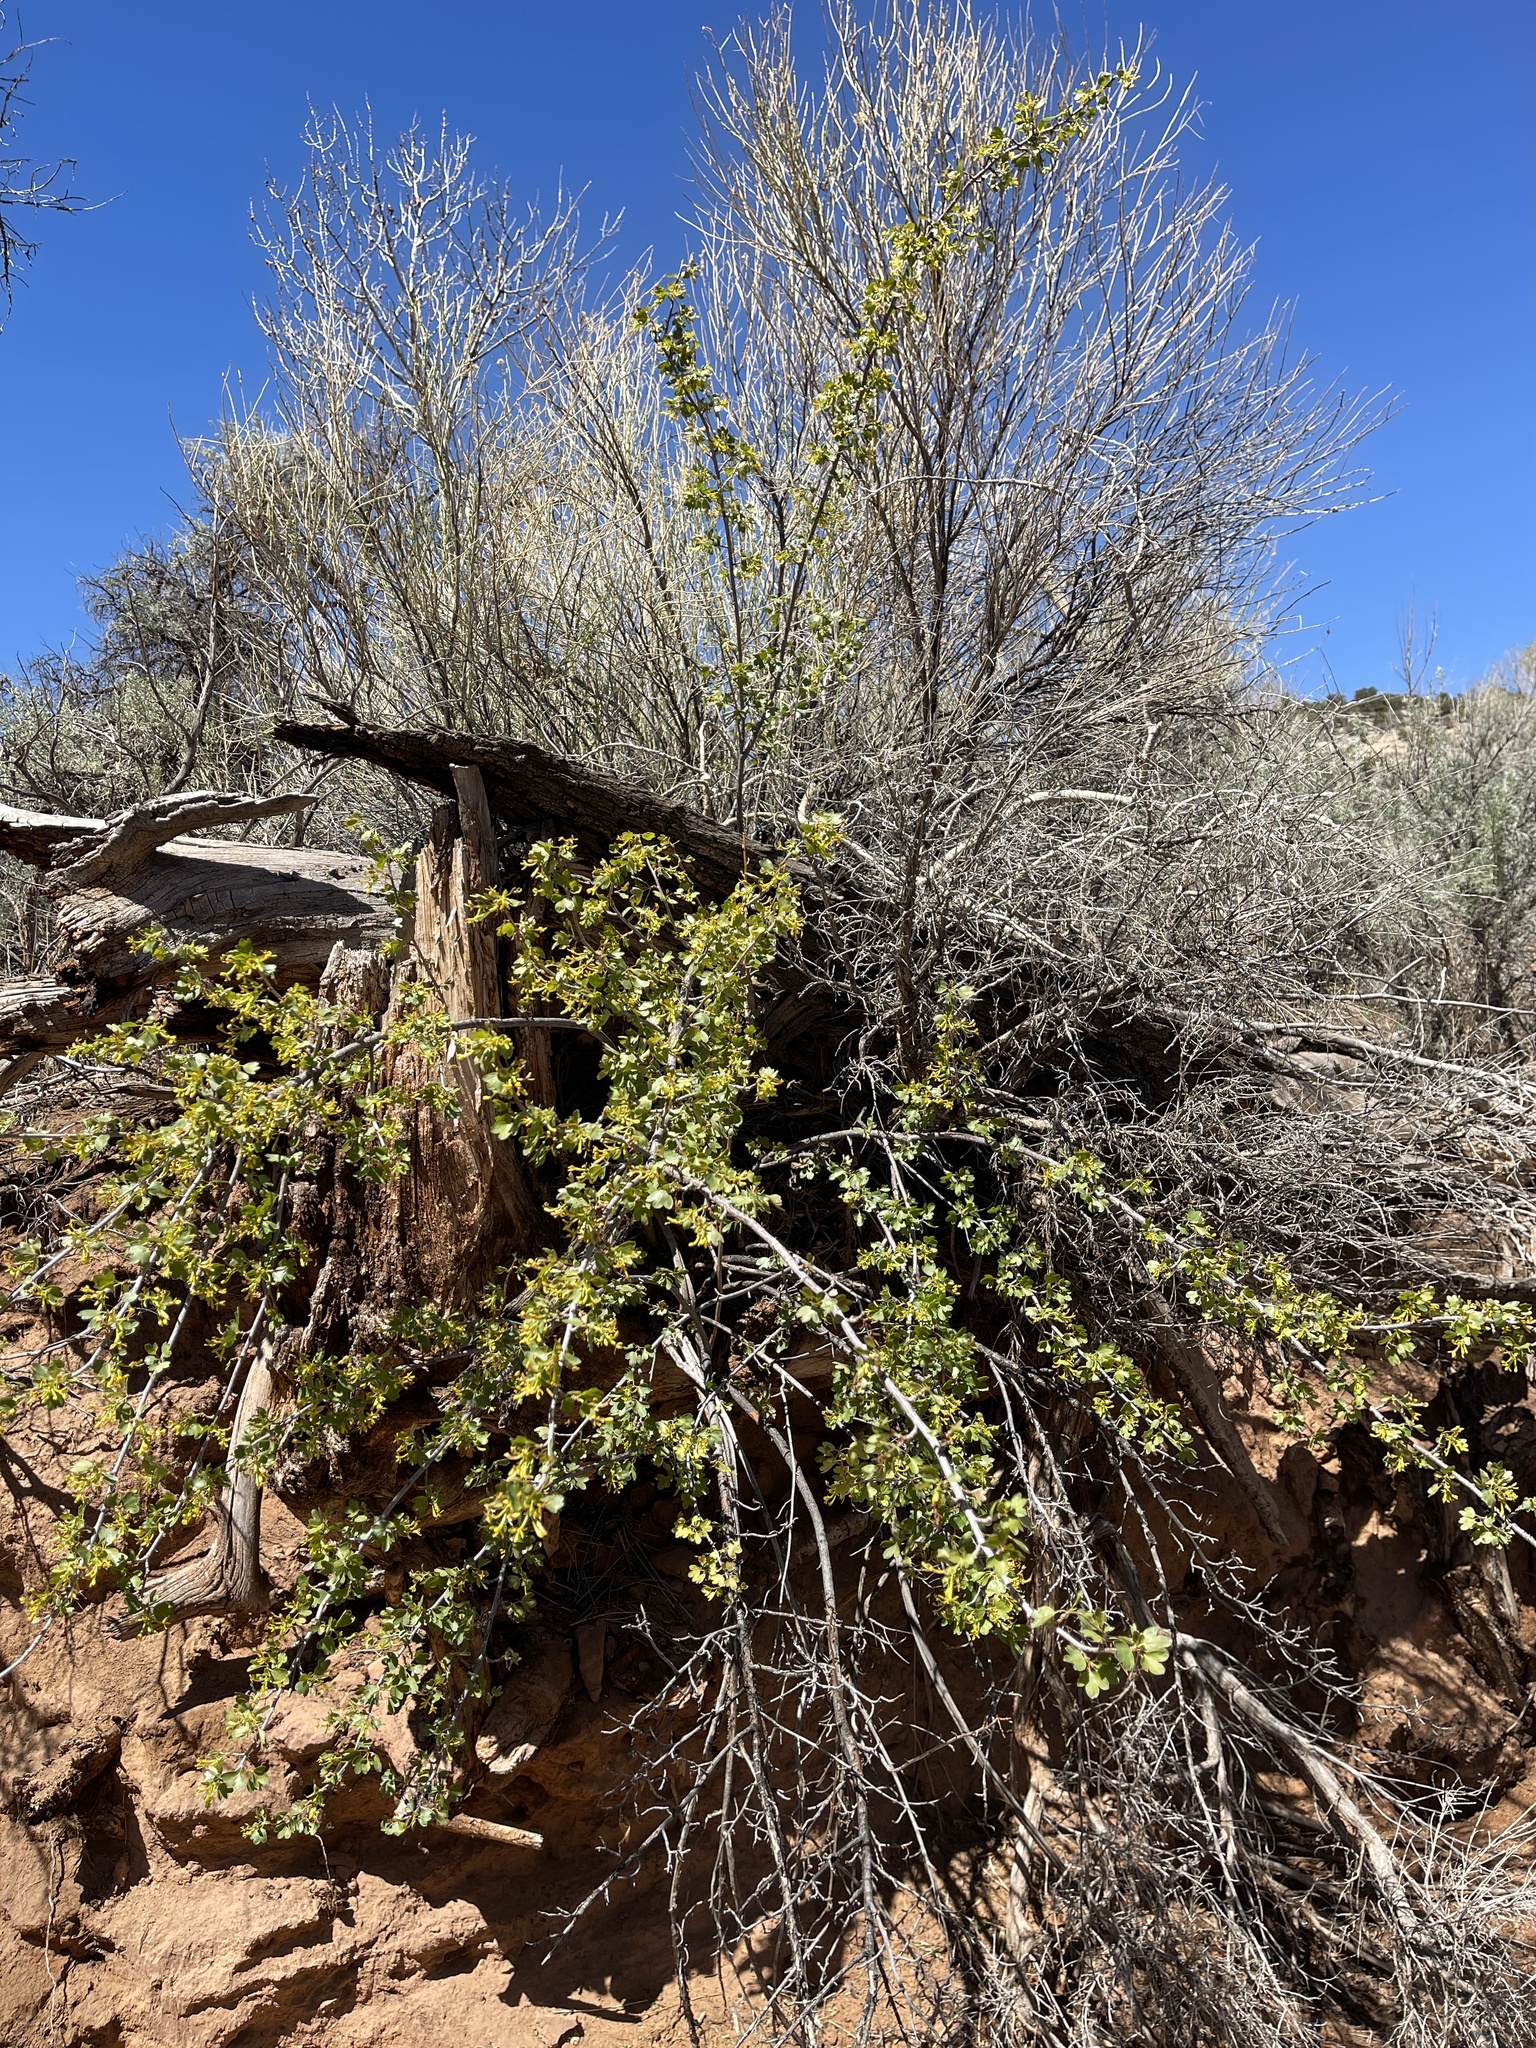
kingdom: Plantae
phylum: Tracheophyta
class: Magnoliopsida
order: Saxifragales
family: Grossulariaceae
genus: Ribes
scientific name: Ribes aureum
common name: Golden currant
